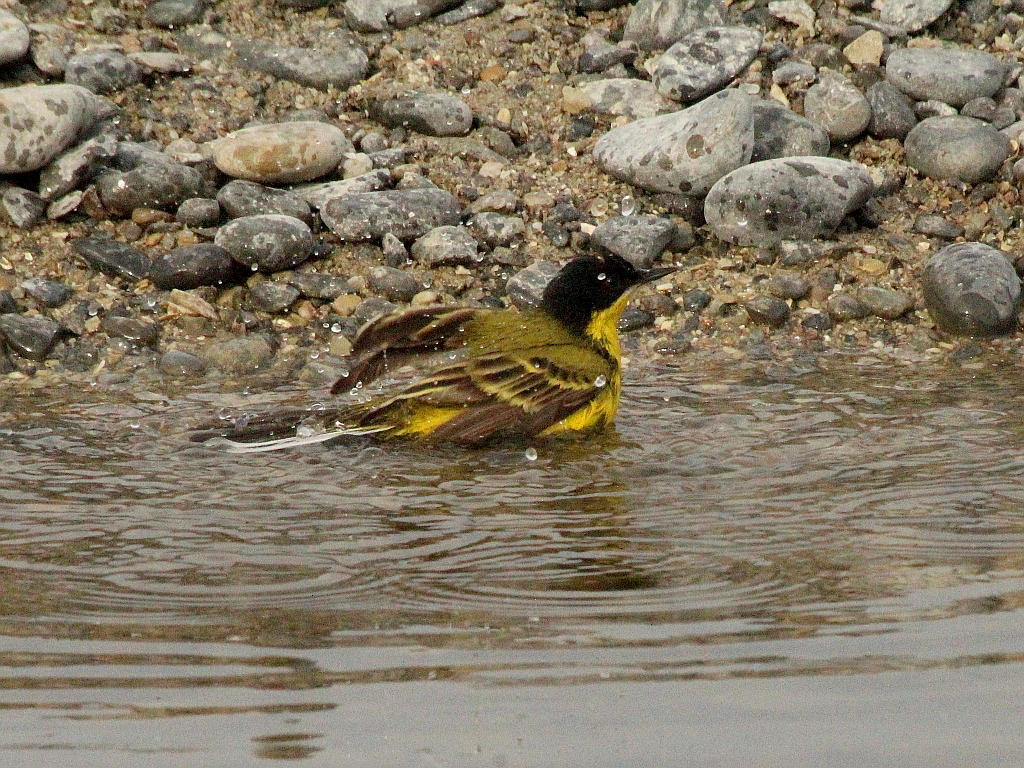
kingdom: Animalia
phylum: Chordata
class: Aves
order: Passeriformes
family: Motacillidae
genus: Motacilla
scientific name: Motacilla flava
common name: Western yellow wagtail
